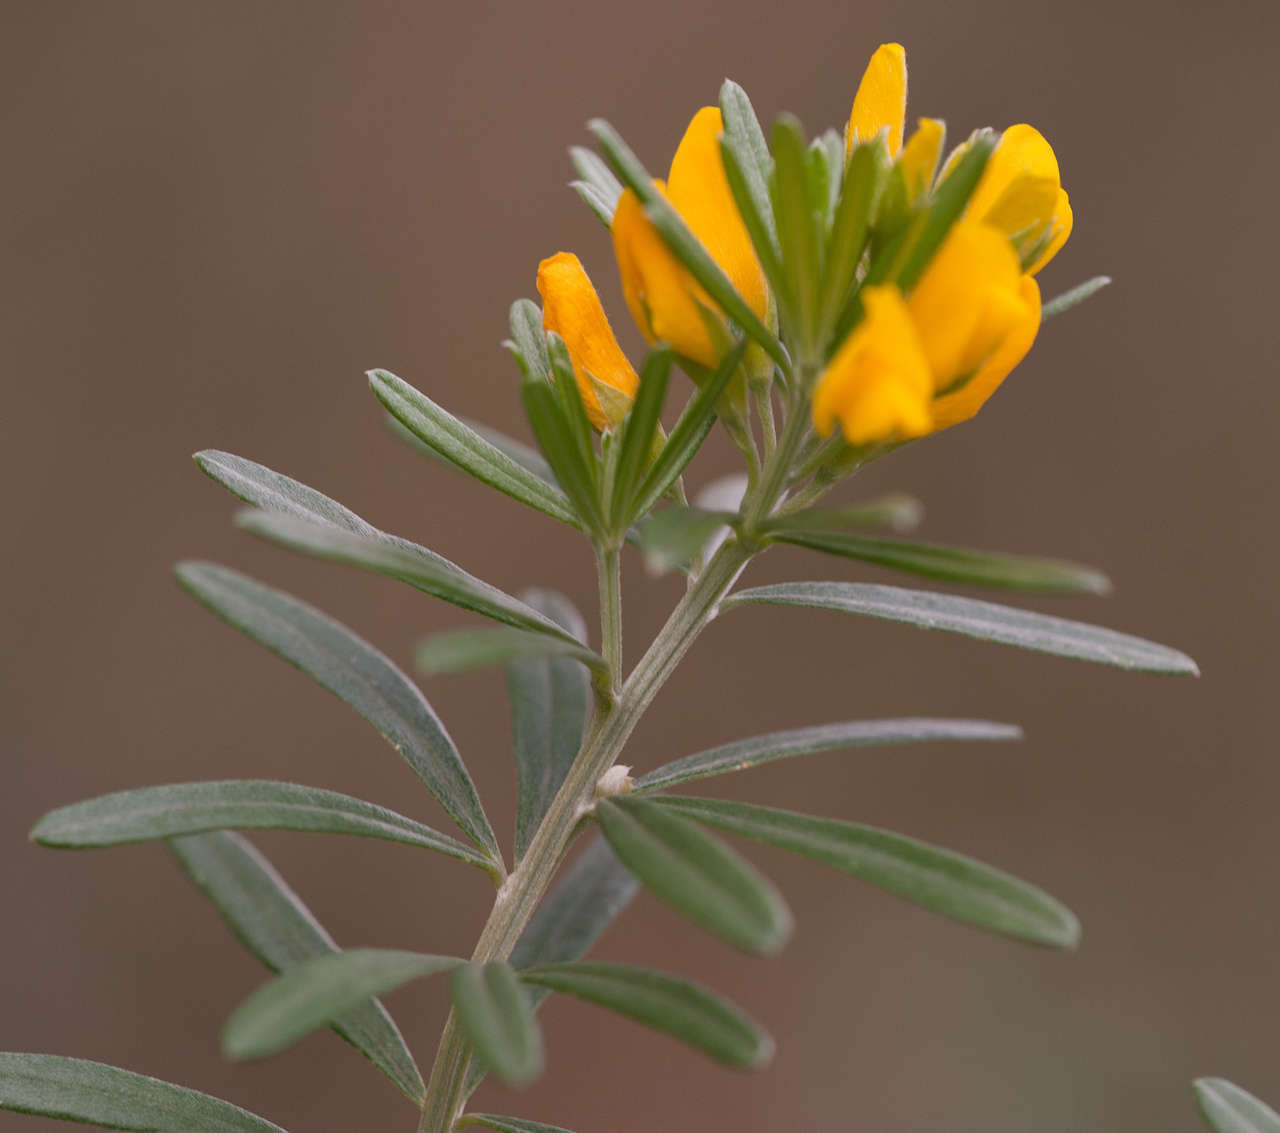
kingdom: Plantae
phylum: Tracheophyta
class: Magnoliopsida
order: Fabales
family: Fabaceae
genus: Genista
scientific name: Genista linifolia
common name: Mediterranean broom
